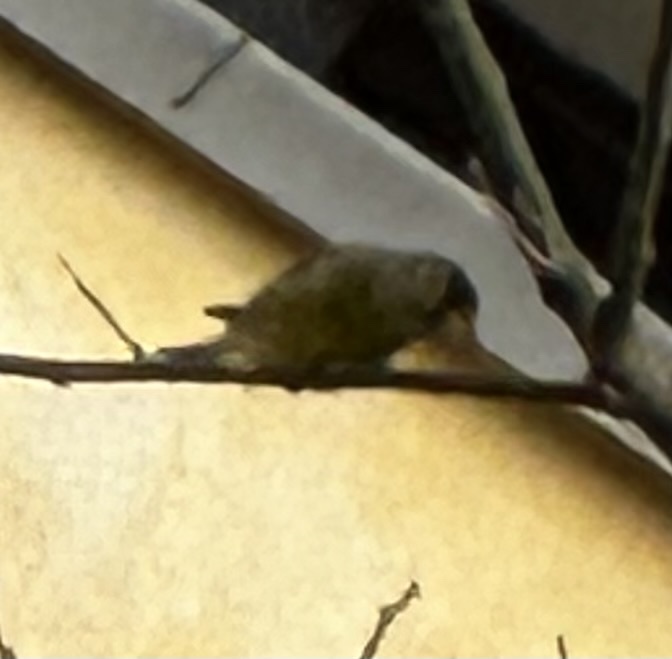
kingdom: Plantae
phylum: Tracheophyta
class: Liliopsida
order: Poales
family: Poaceae
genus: Chloris
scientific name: Chloris chloris
